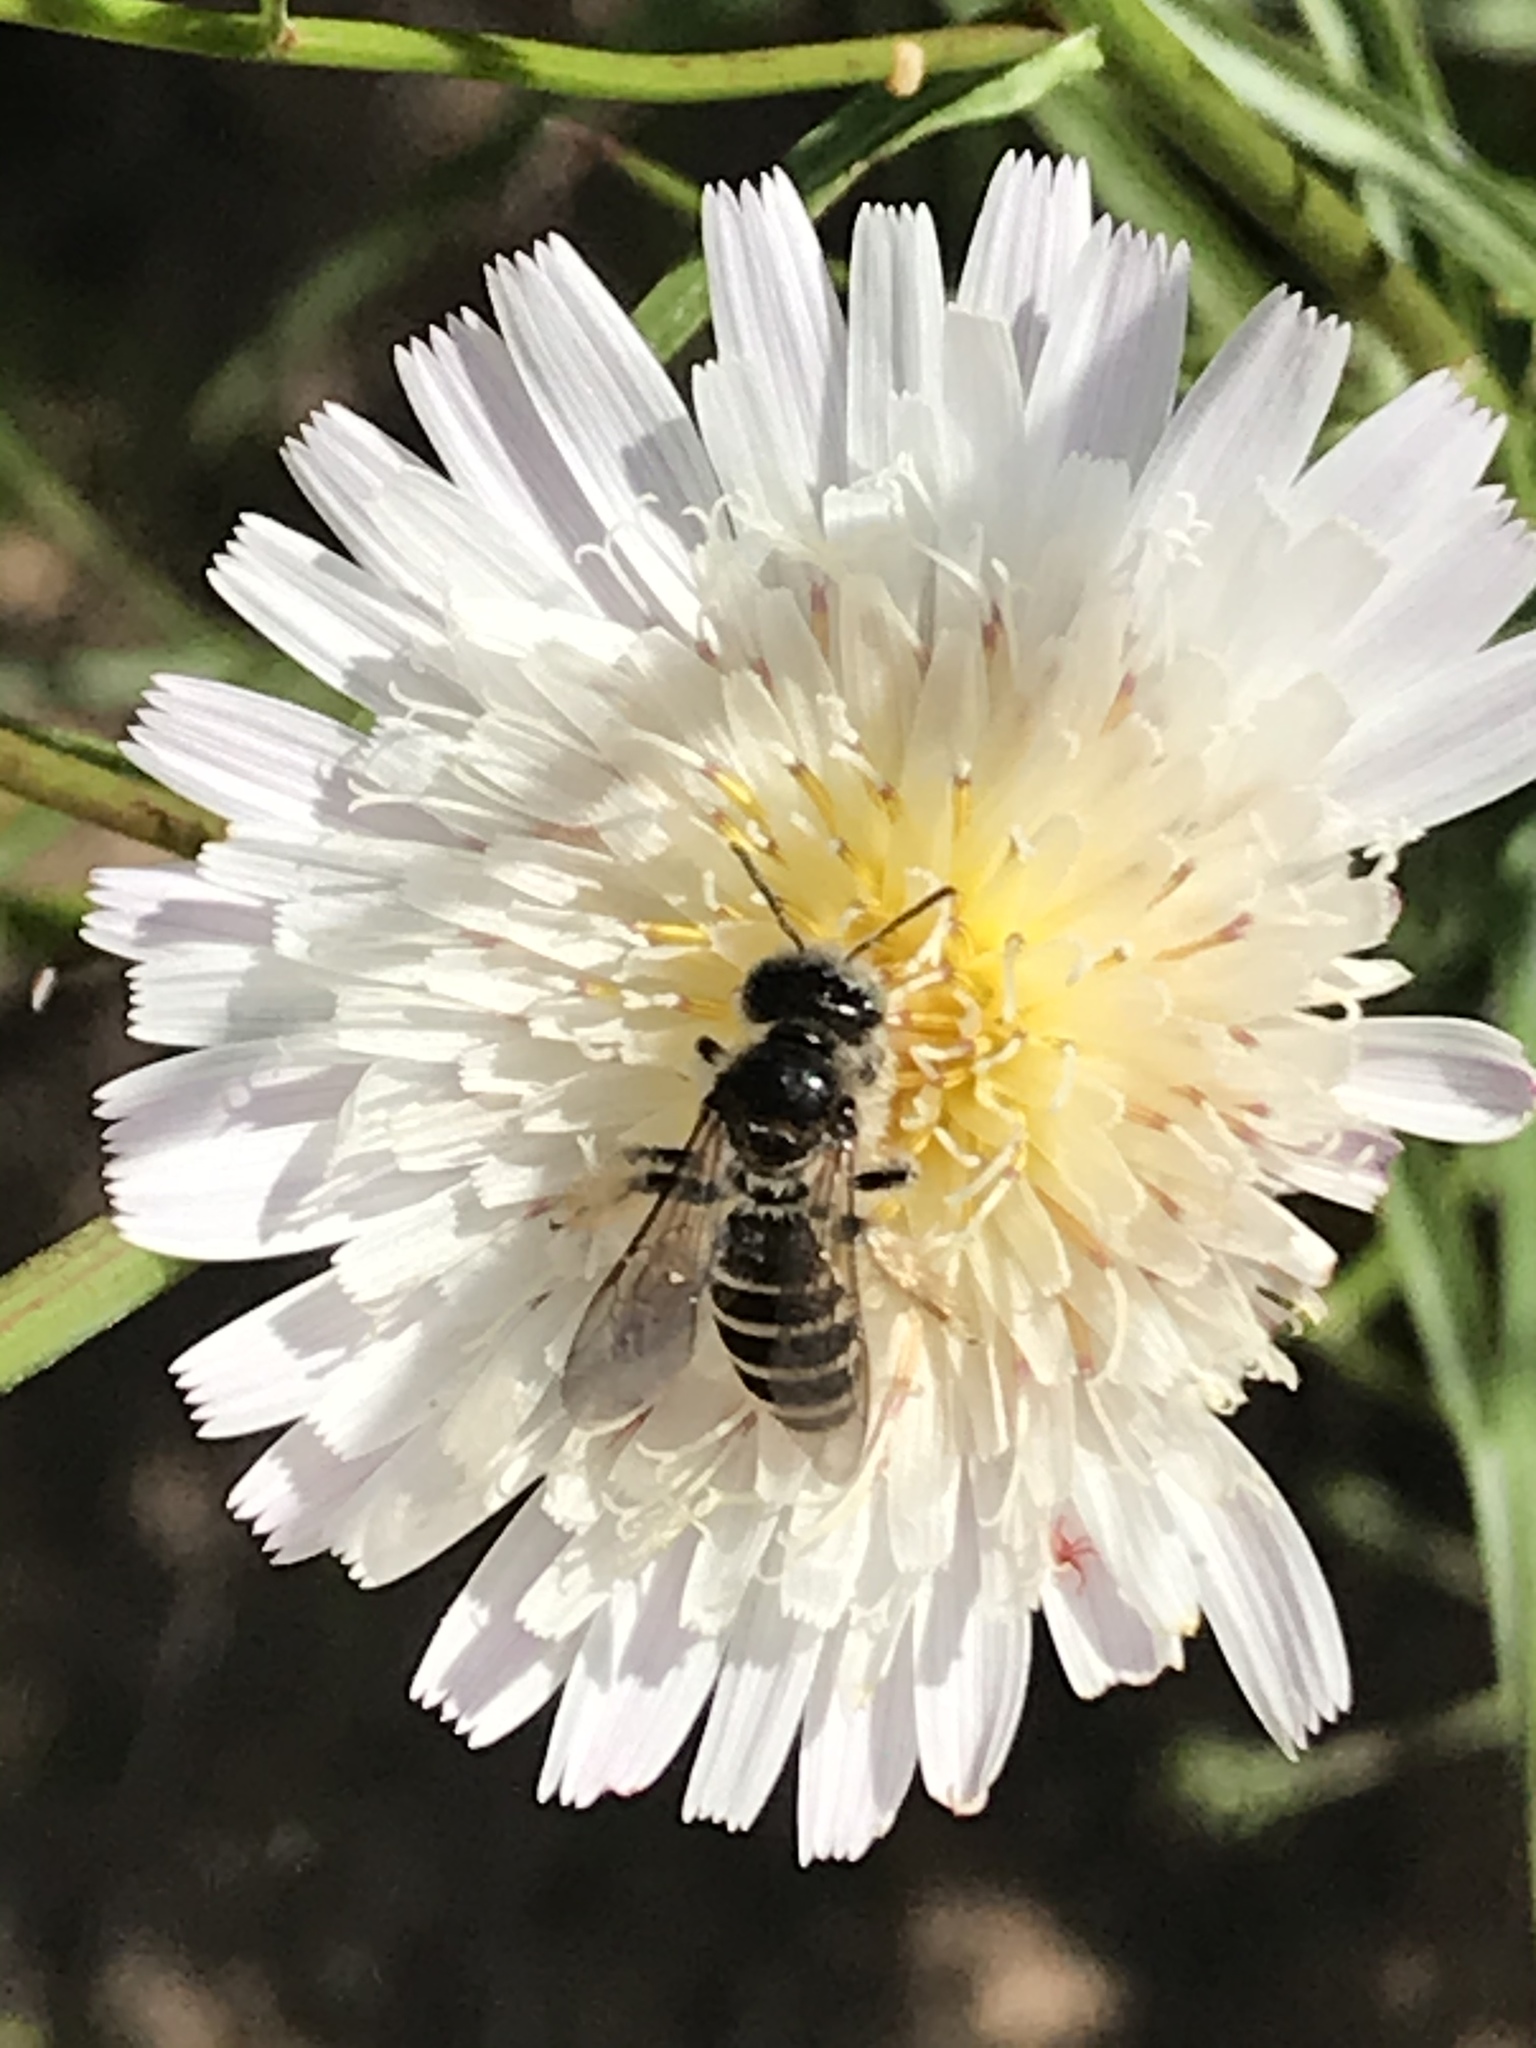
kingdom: Animalia
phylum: Arthropoda
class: Insecta
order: Hymenoptera
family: Melittidae
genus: Hesperapis
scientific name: Hesperapis
